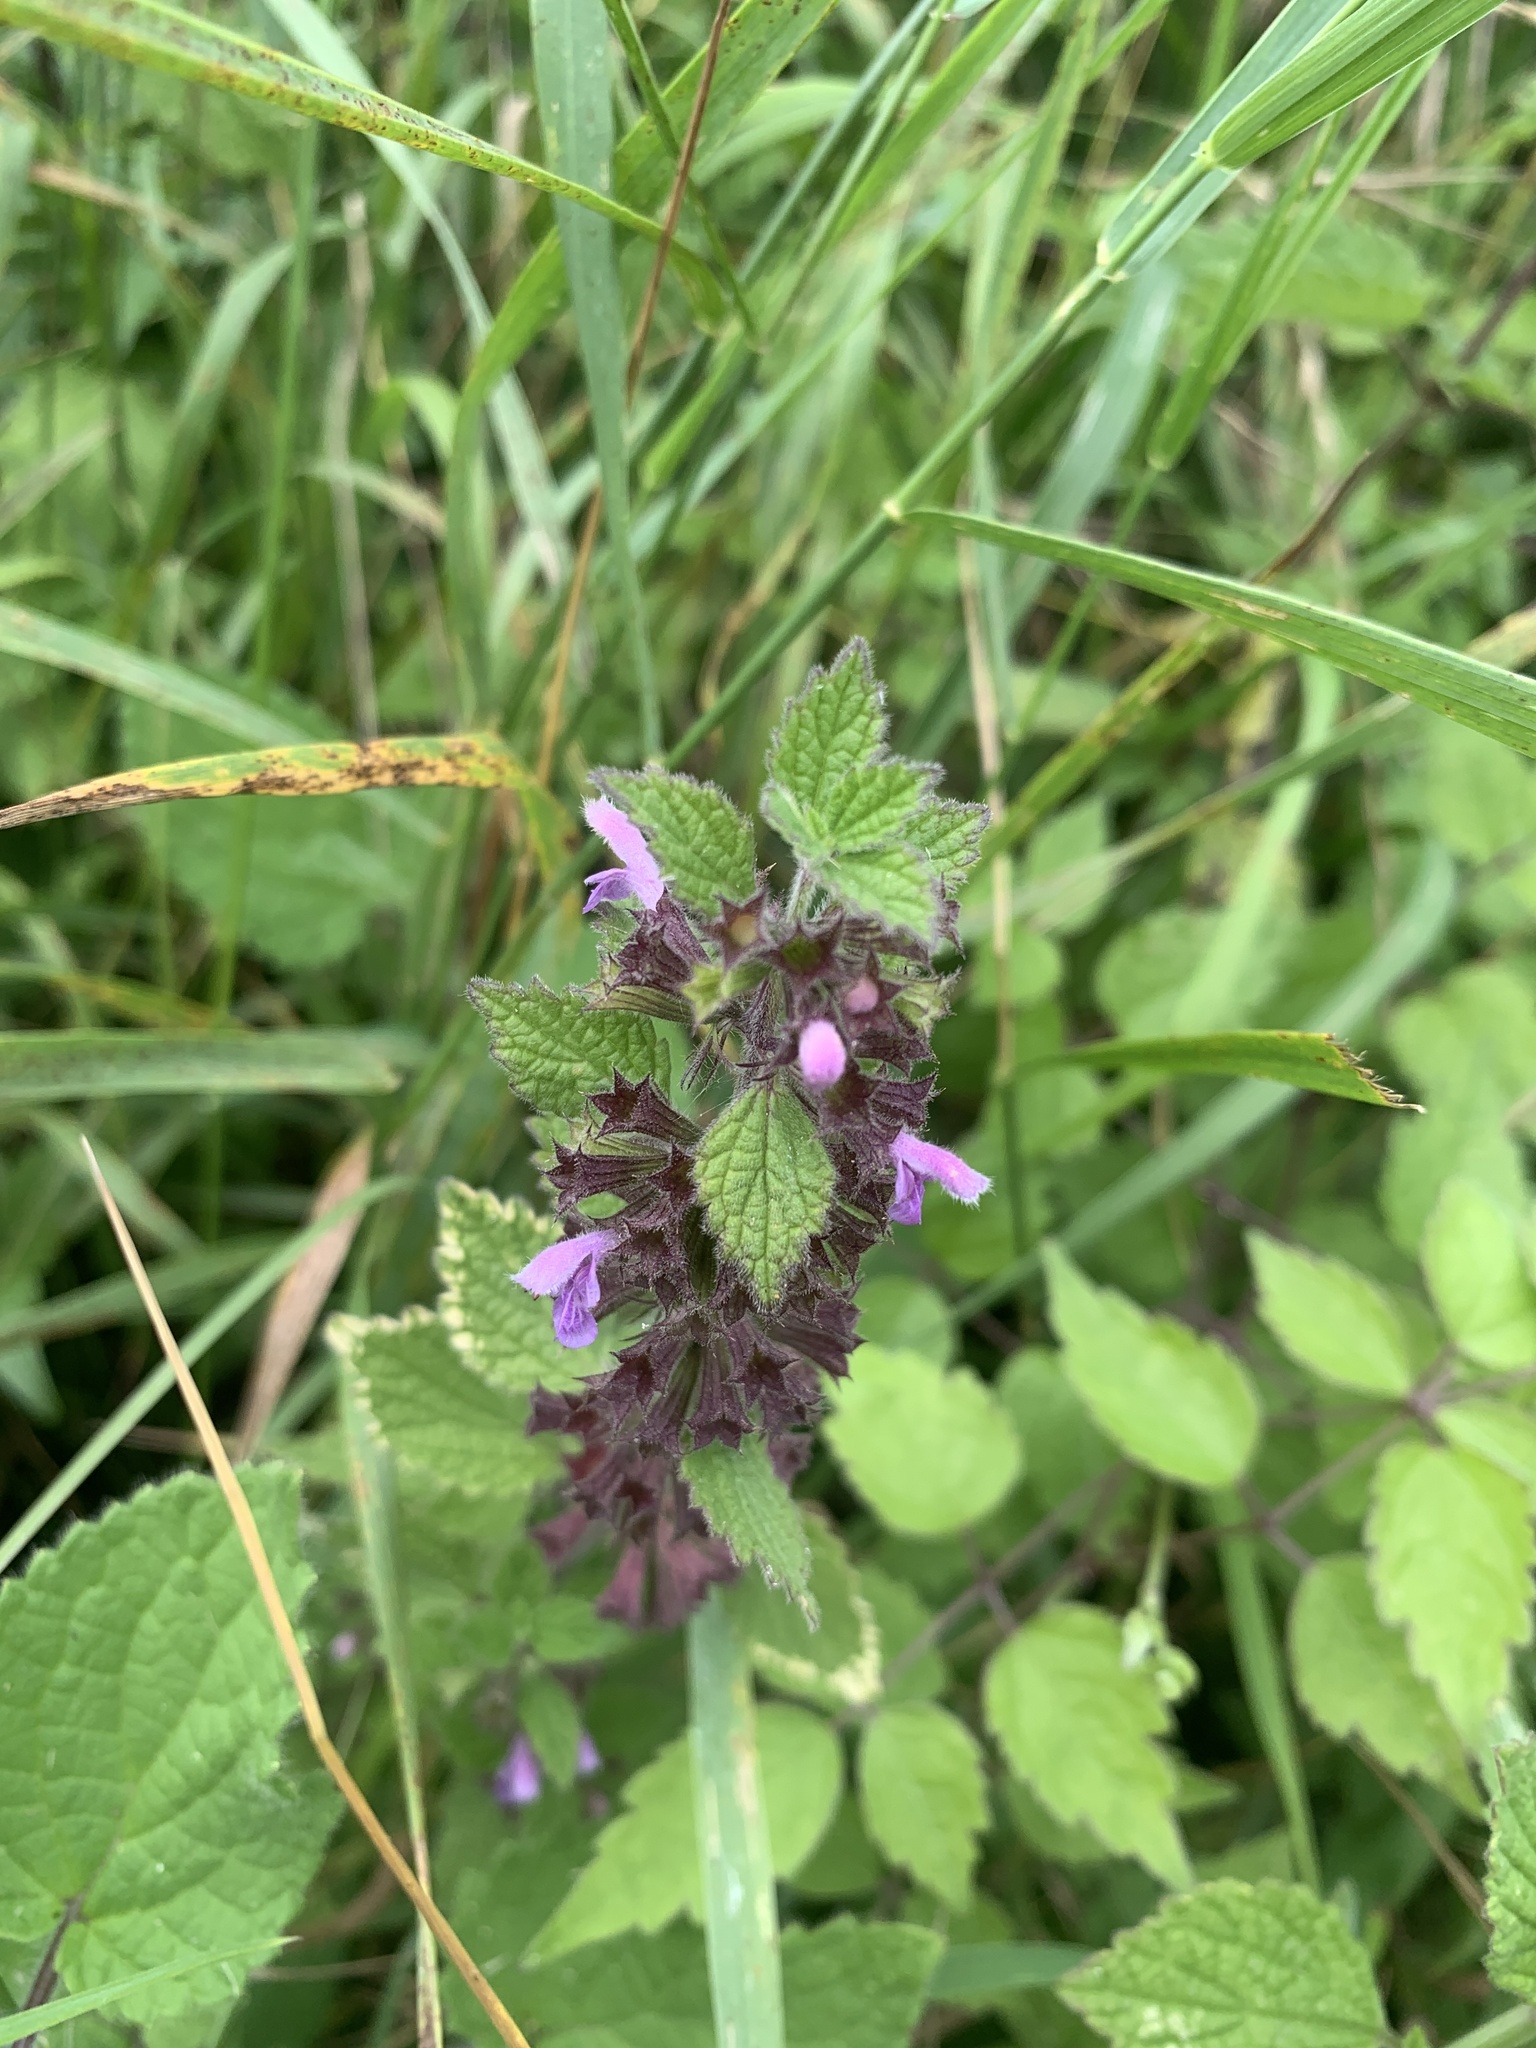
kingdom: Plantae
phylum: Tracheophyta
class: Magnoliopsida
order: Lamiales
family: Lamiaceae
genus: Ballota
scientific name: Ballota nigra
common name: Black horehound
